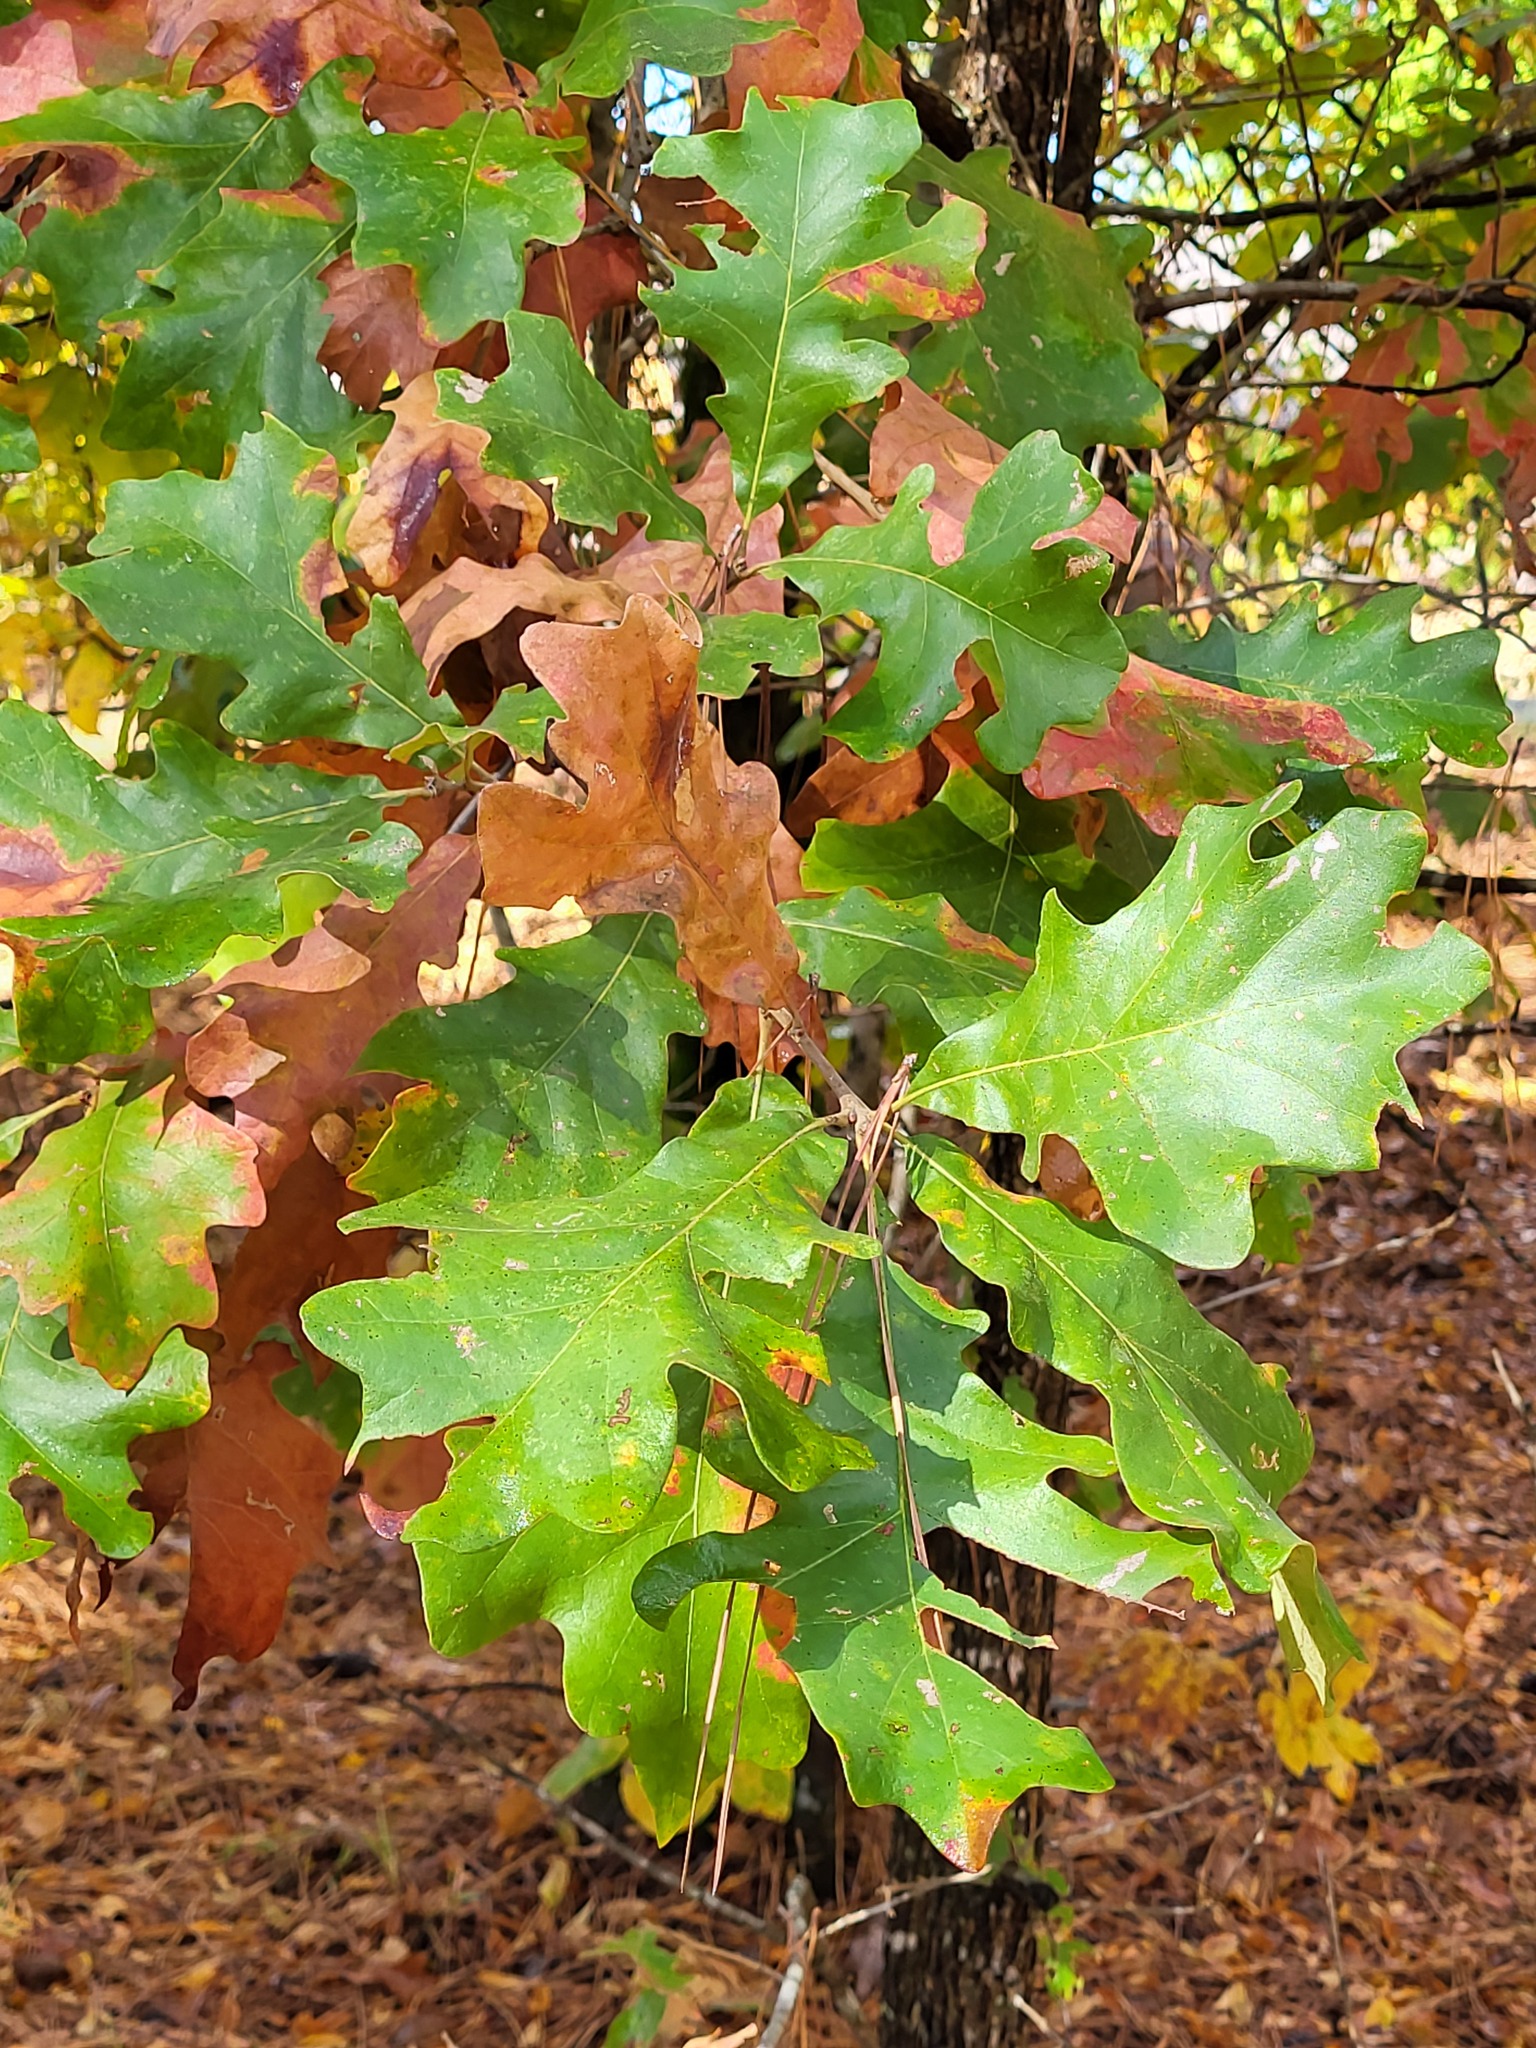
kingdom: Plantae
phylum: Tracheophyta
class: Magnoliopsida
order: Fagales
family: Fagaceae
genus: Quercus
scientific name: Quercus stellata
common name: Post oak
